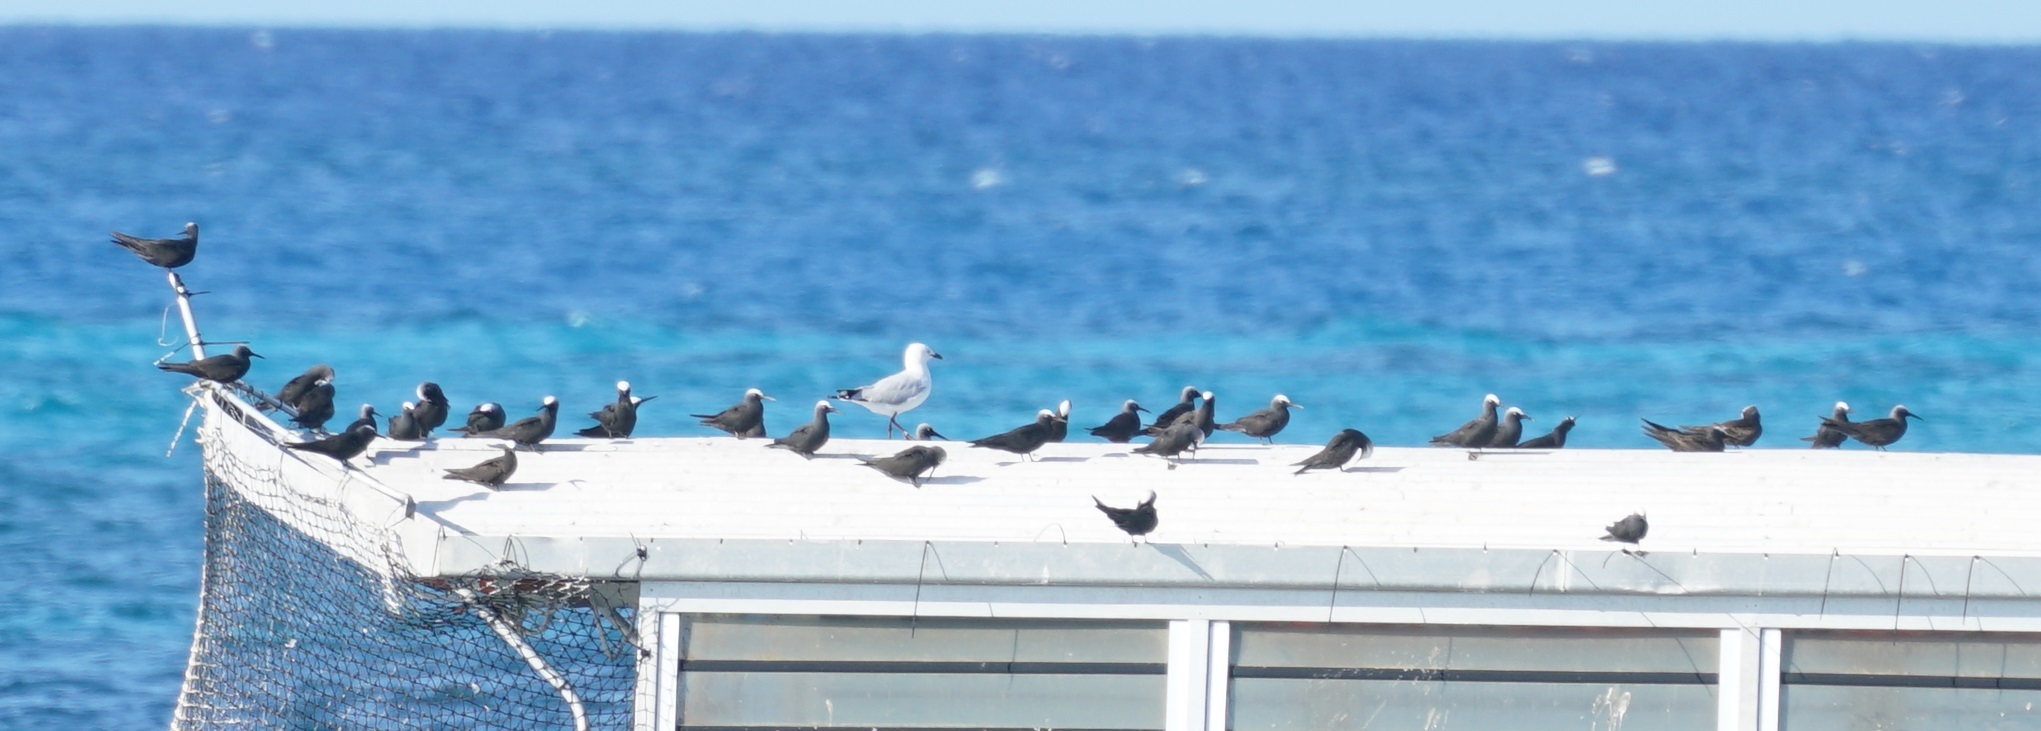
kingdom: Animalia
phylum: Chordata
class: Aves
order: Charadriiformes
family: Laridae
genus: Anous
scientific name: Anous minutus
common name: Black noddy
